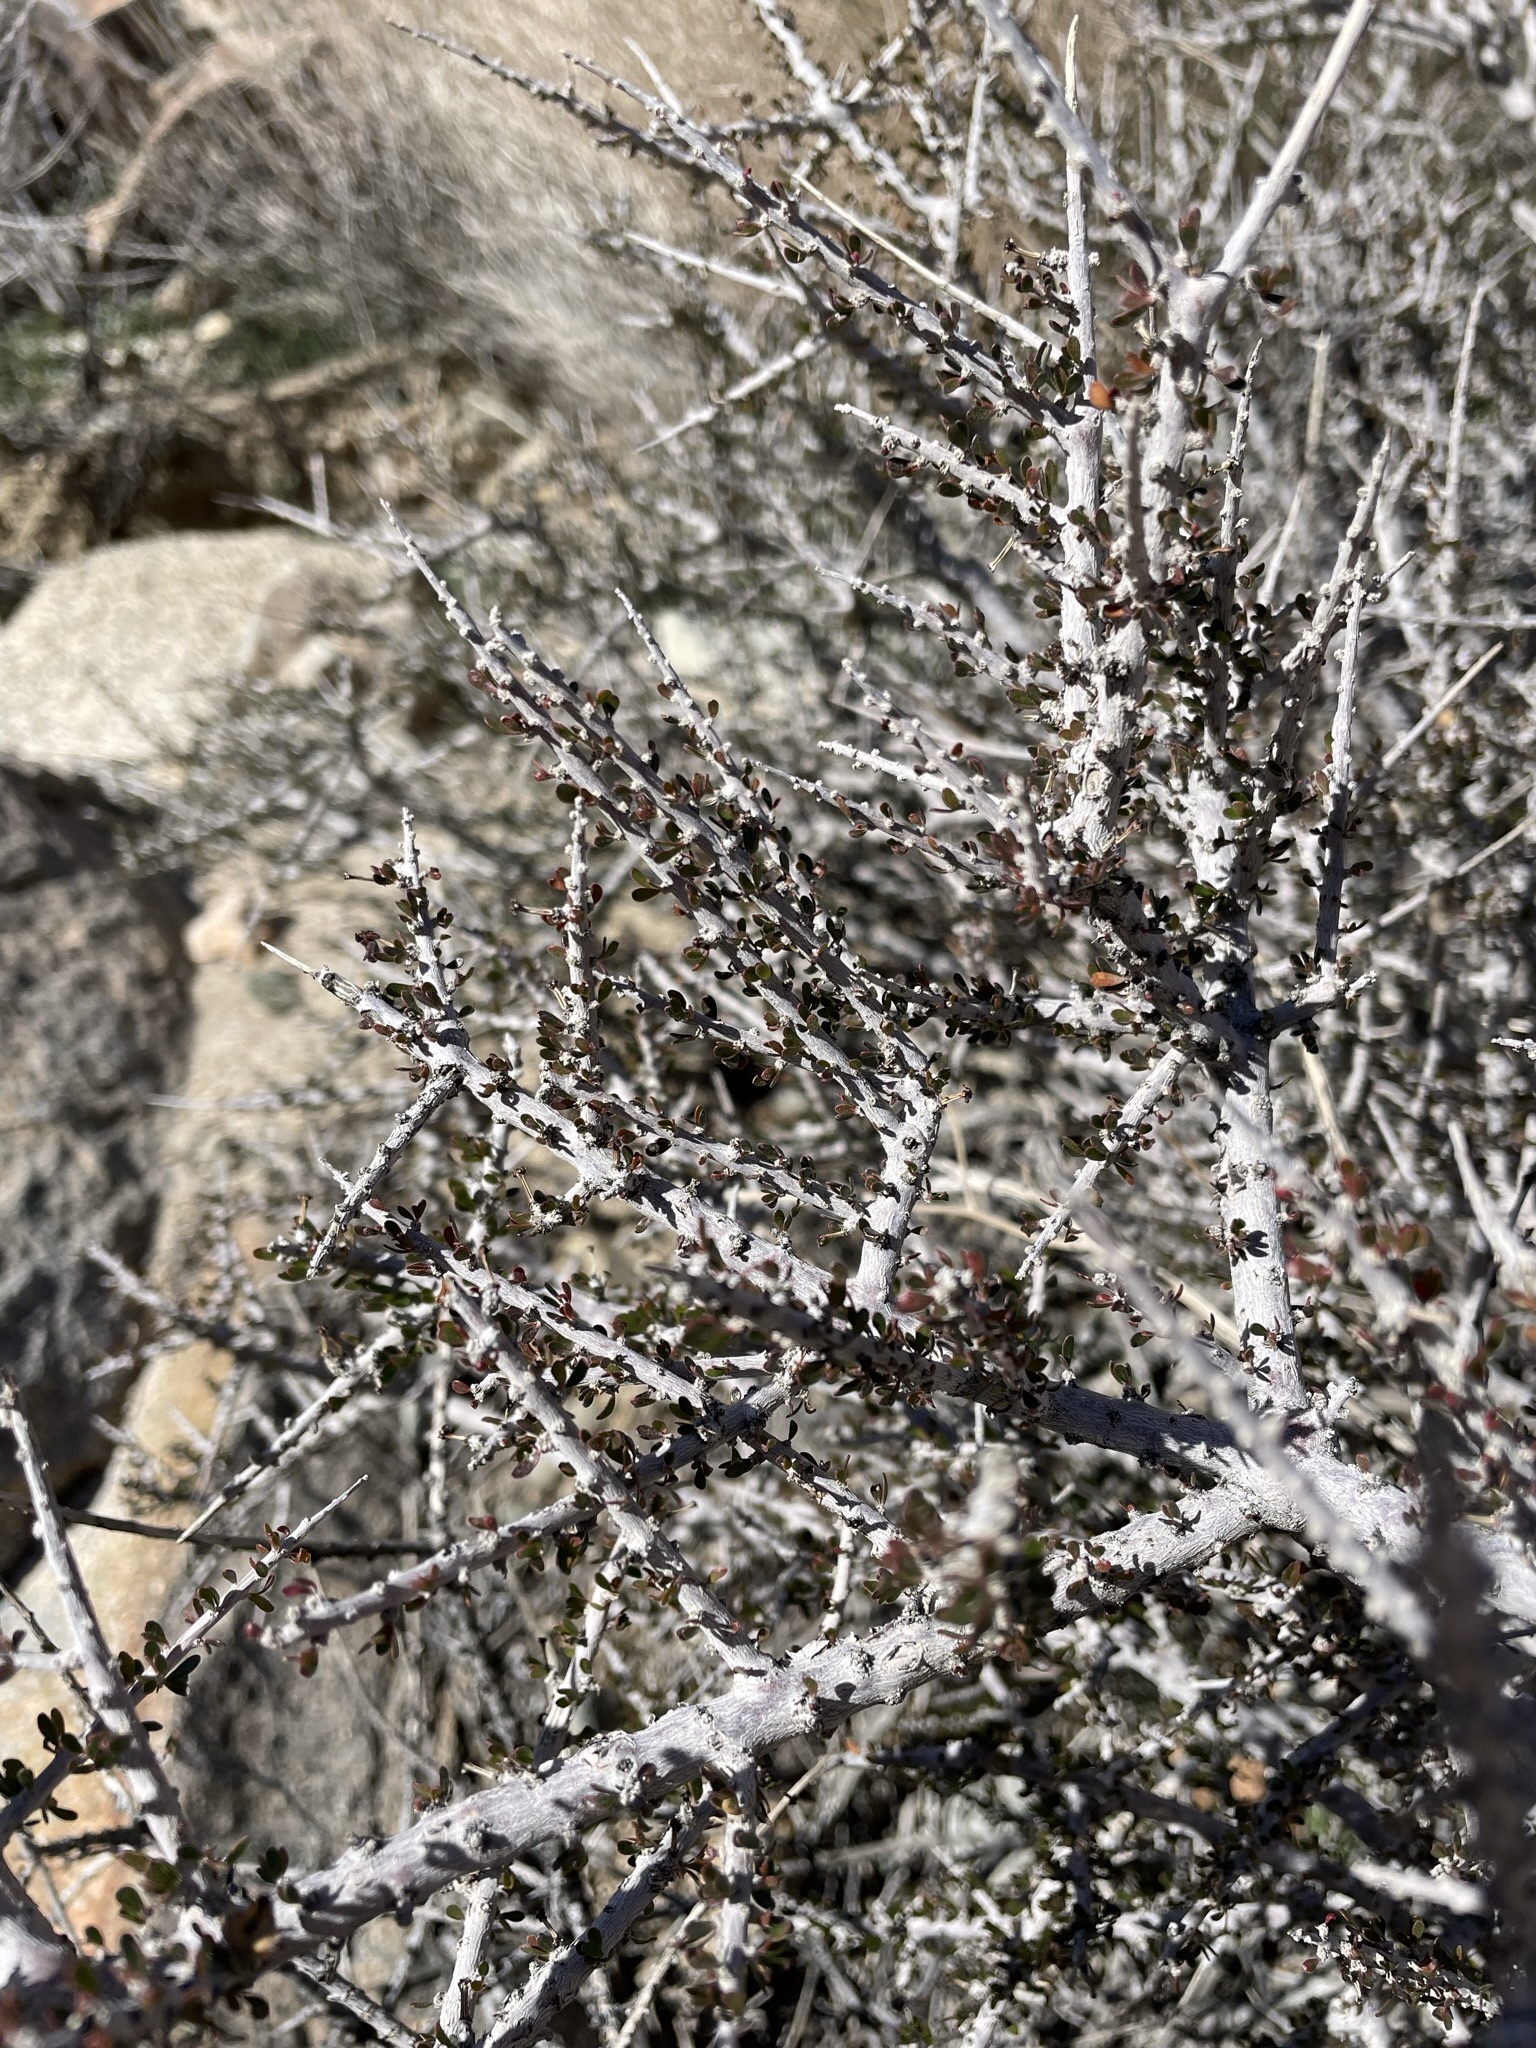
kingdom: Plantae
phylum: Tracheophyta
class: Magnoliopsida
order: Malpighiales
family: Picrodendraceae
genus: Tetracoccus
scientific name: Tetracoccus hallii
